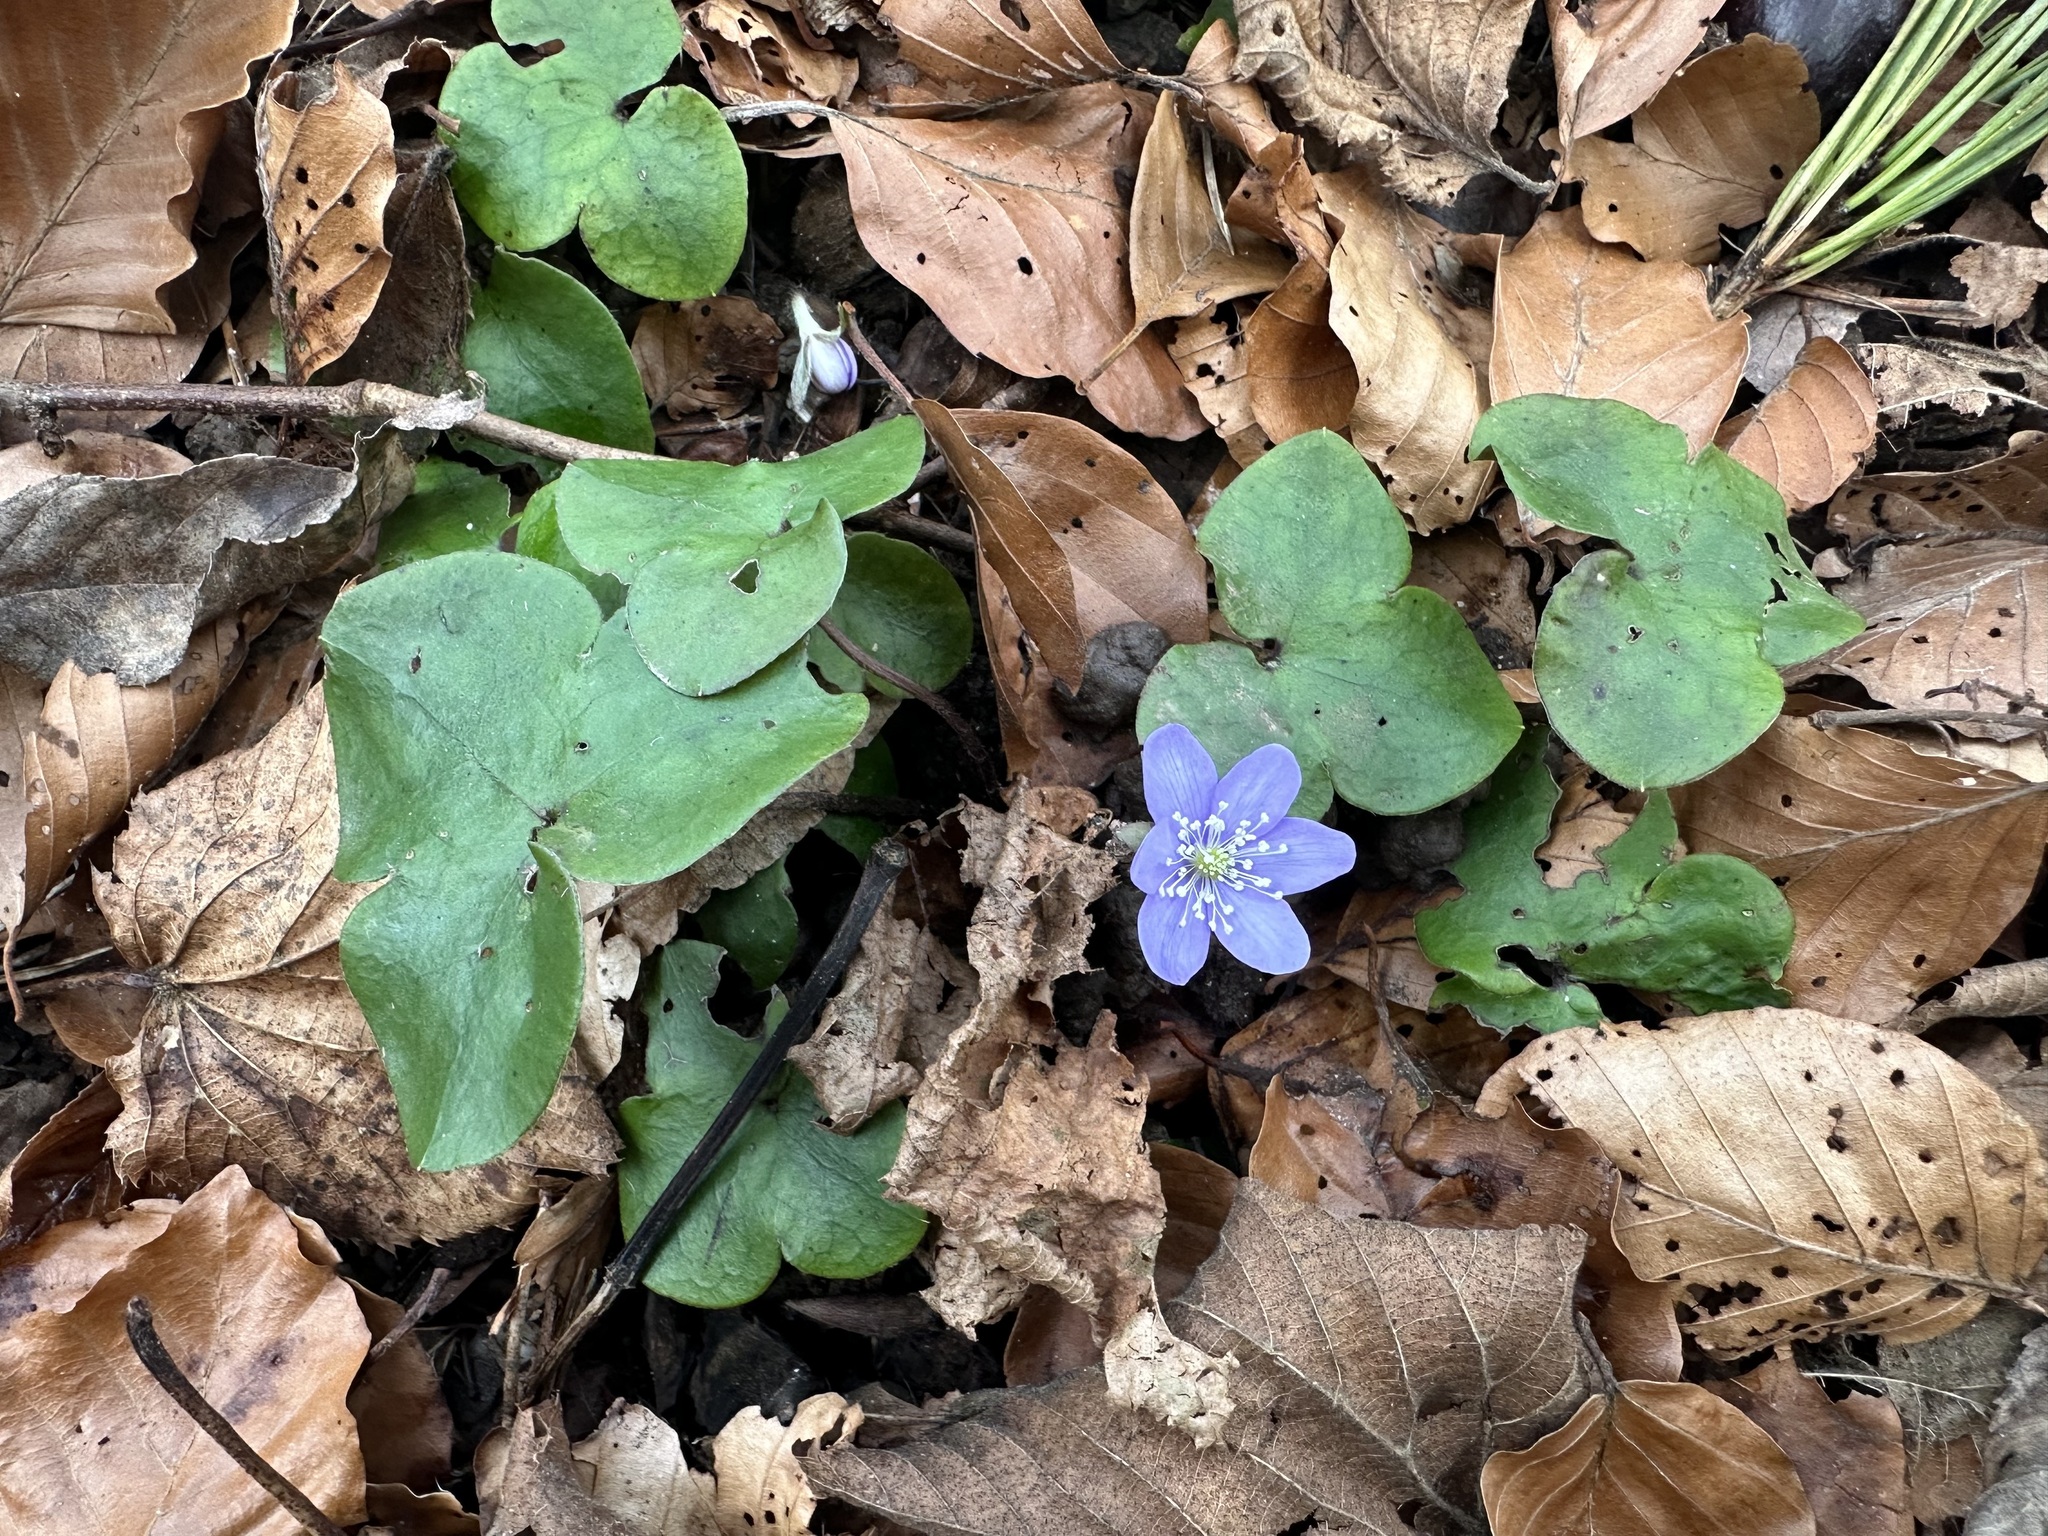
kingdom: Plantae
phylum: Tracheophyta
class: Magnoliopsida
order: Ranunculales
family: Ranunculaceae
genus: Hepatica
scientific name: Hepatica nobilis
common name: Liverleaf
